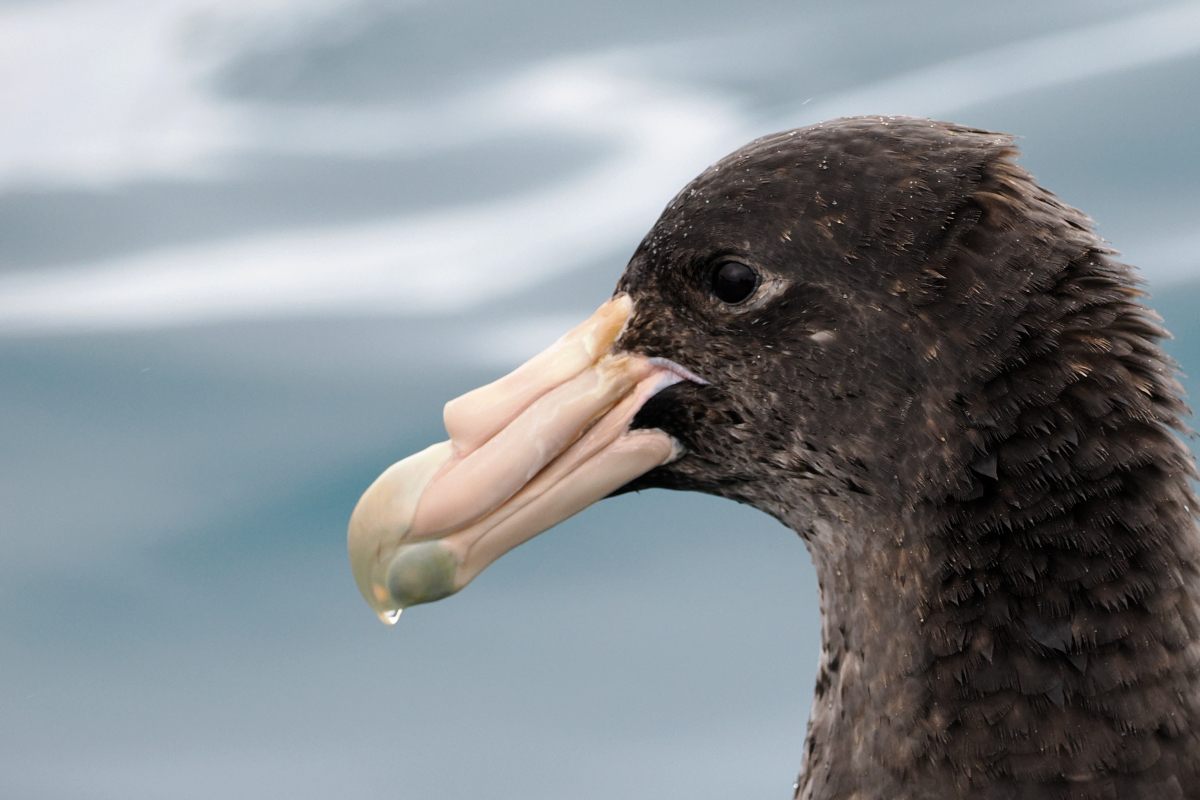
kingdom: Animalia
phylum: Chordata
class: Aves
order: Procellariiformes
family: Procellariidae
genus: Macronectes
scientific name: Macronectes giganteus
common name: Southern giant petrel
